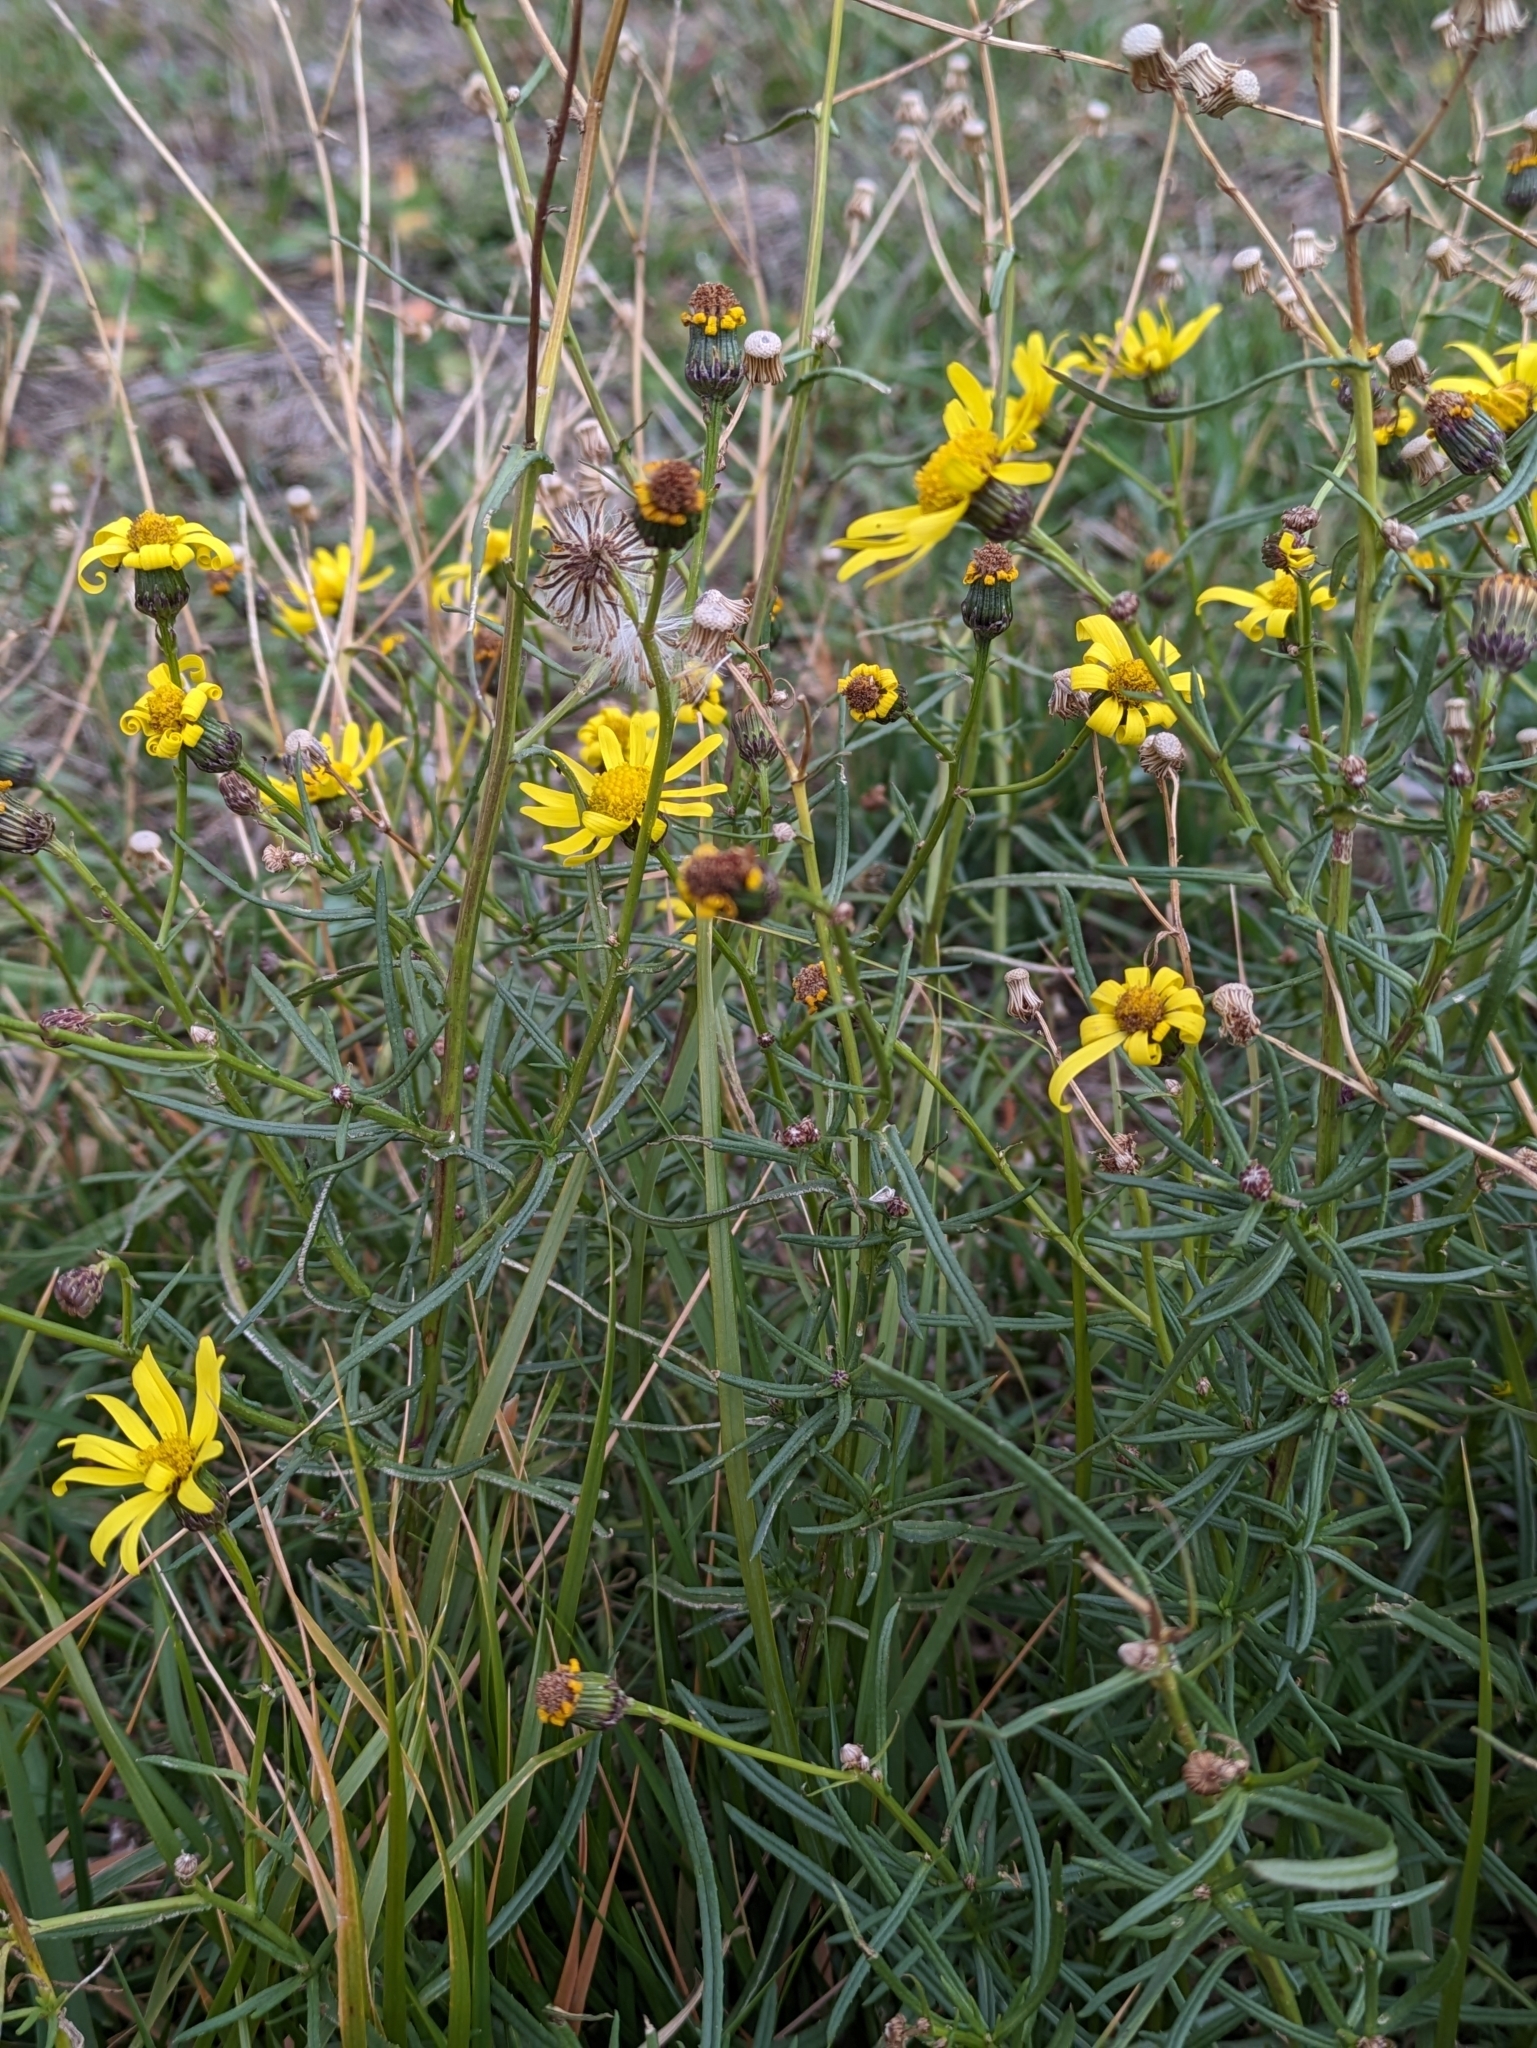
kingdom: Plantae
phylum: Tracheophyta
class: Magnoliopsida
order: Asterales
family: Asteraceae
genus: Senecio
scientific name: Senecio inaequidens
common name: Narrow-leaved ragwort
